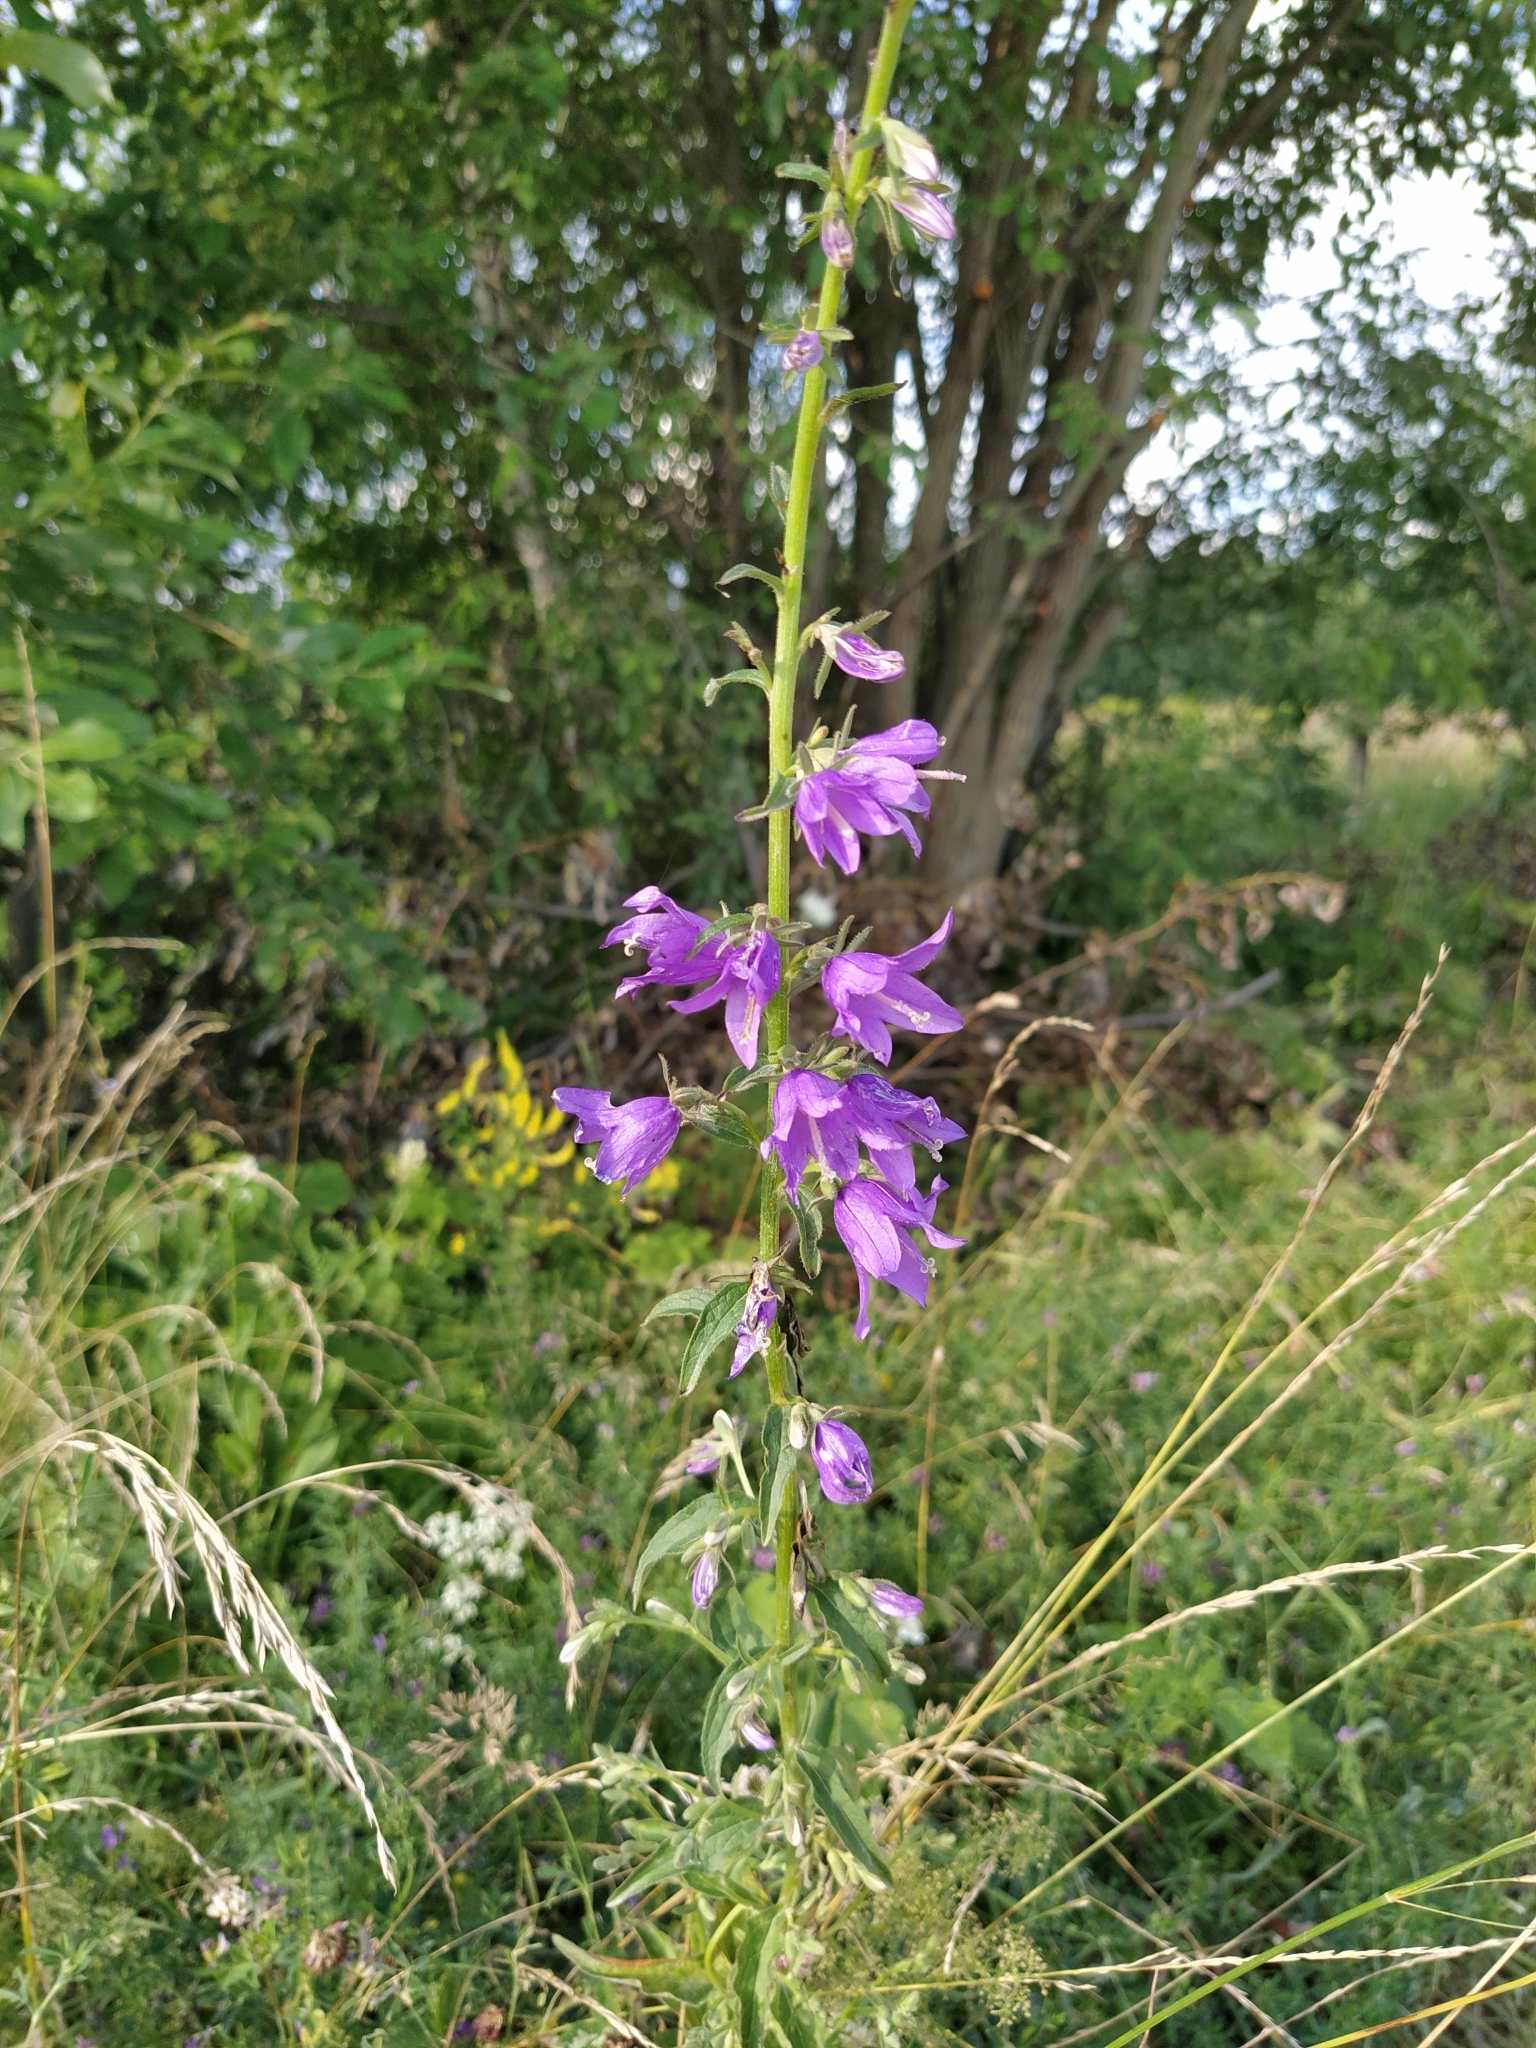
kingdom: Plantae
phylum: Tracheophyta
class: Magnoliopsida
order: Asterales
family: Campanulaceae
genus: Campanula
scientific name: Campanula rapunculoides
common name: Creeping bellflower
